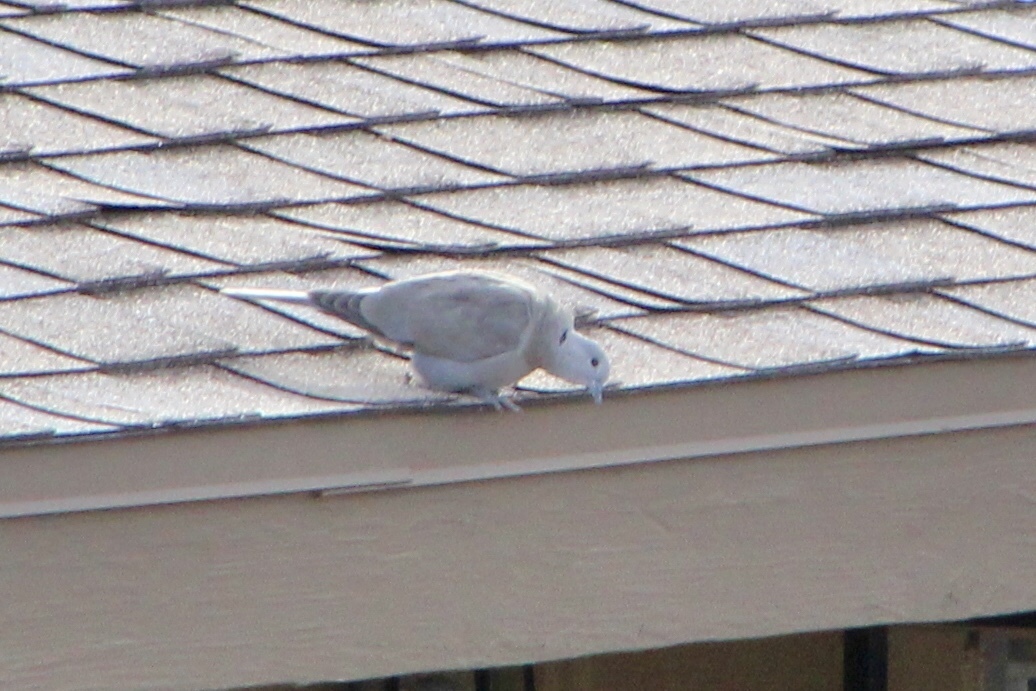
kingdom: Animalia
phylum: Chordata
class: Aves
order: Columbiformes
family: Columbidae
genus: Streptopelia
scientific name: Streptopelia decaocto
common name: Eurasian collared dove
